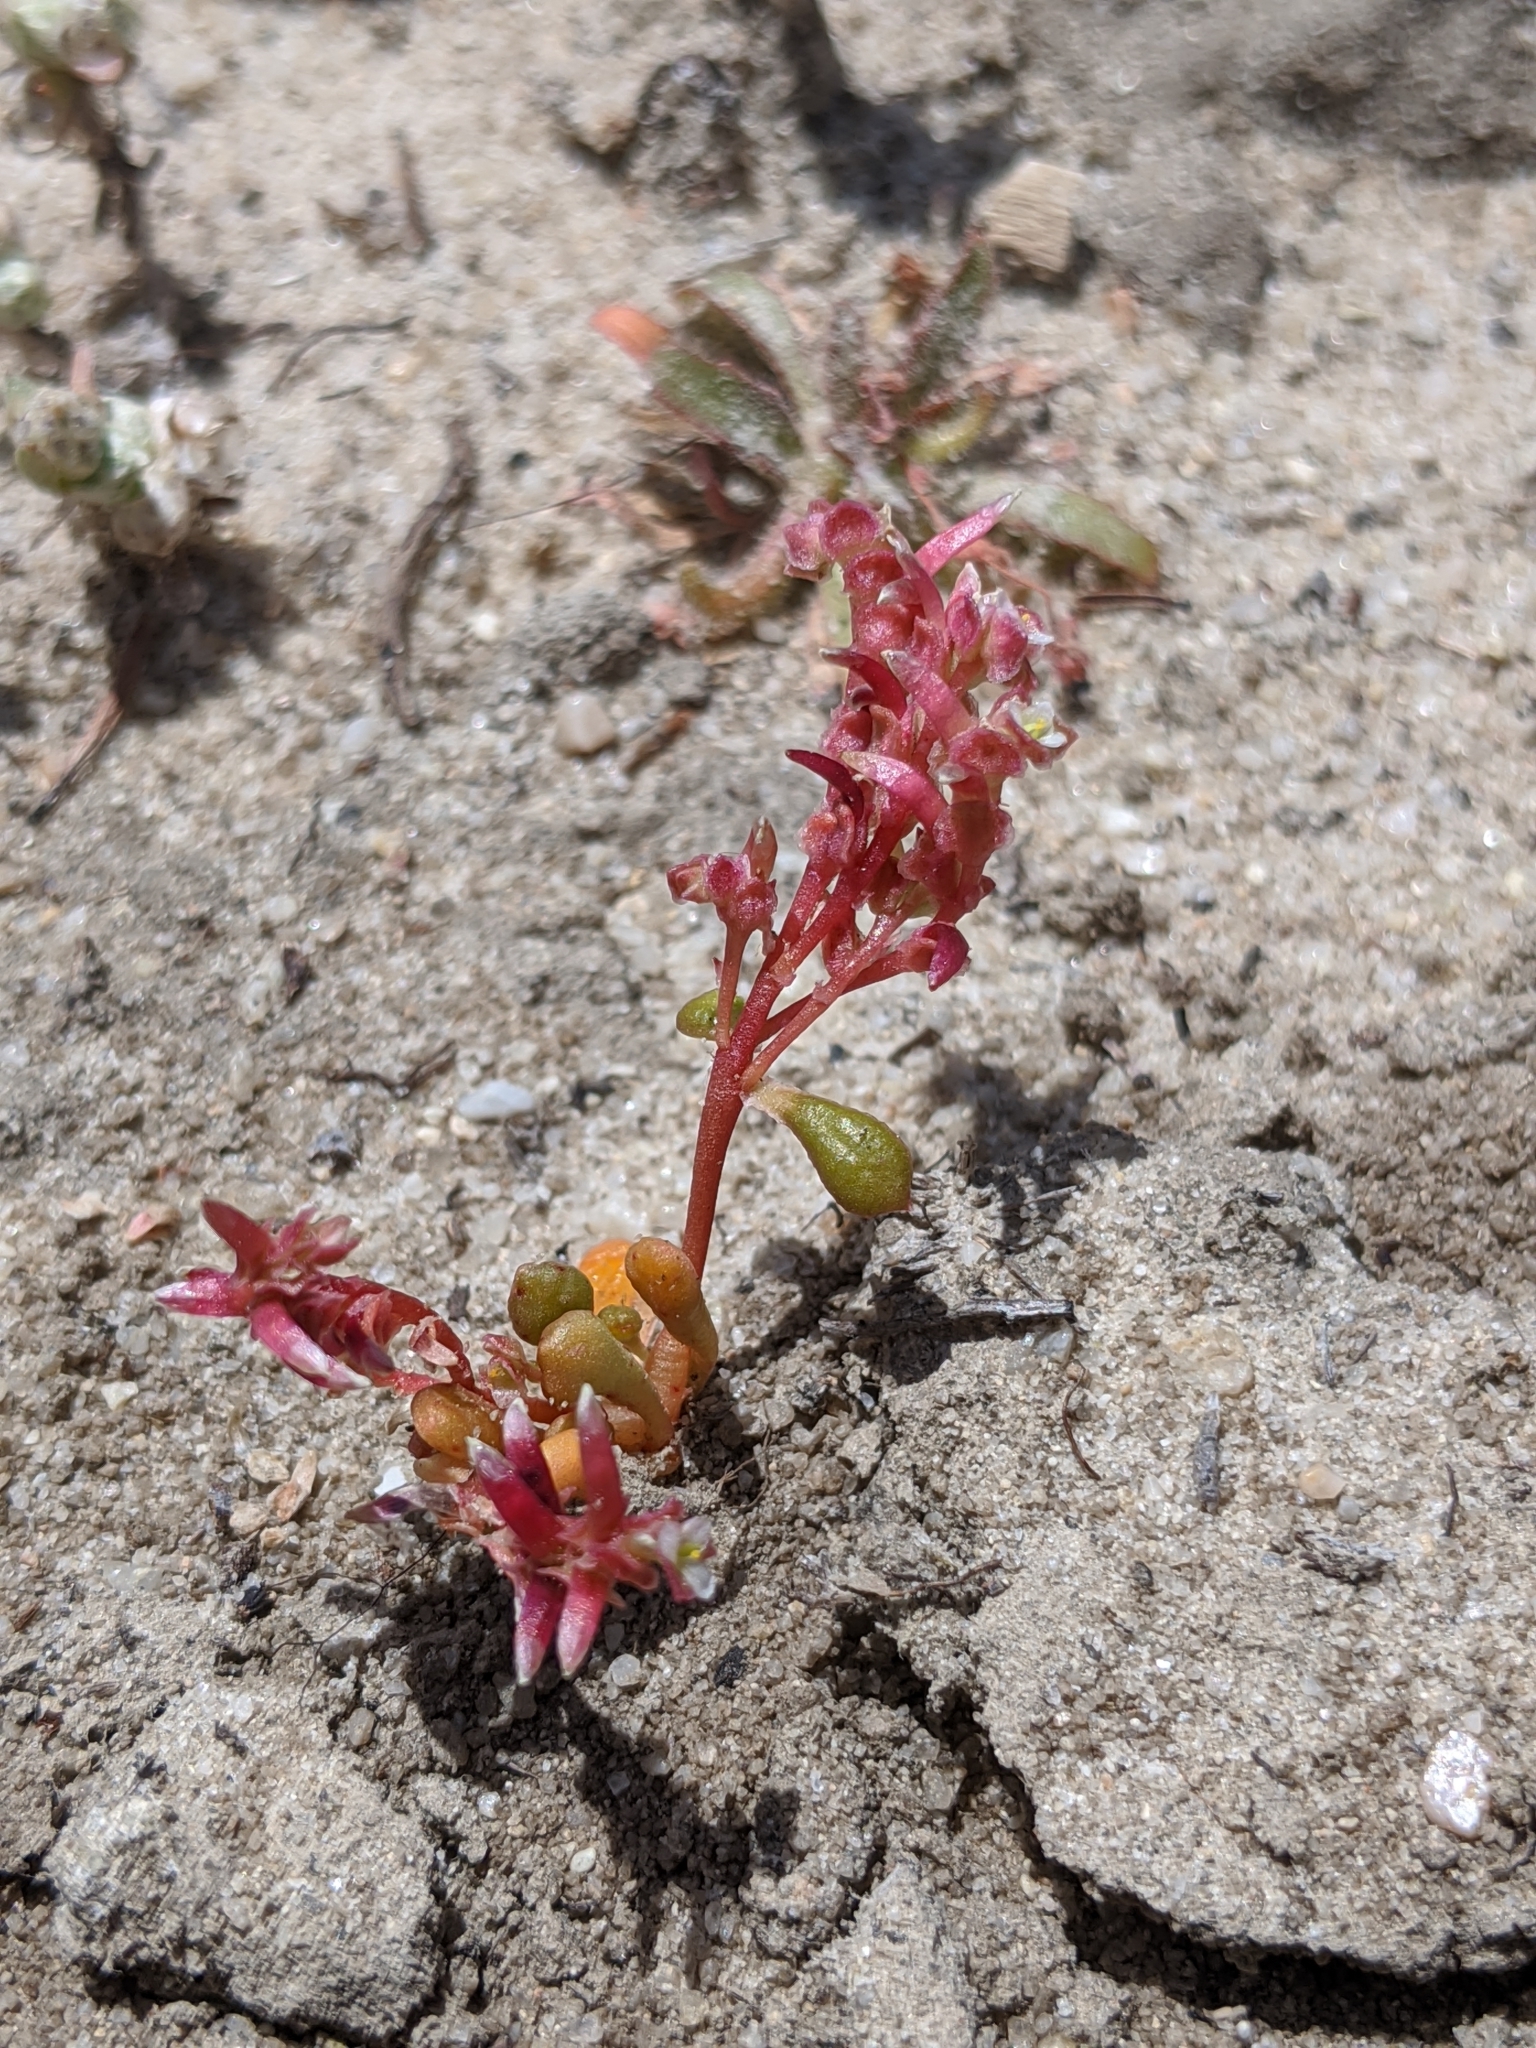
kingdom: Plantae
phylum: Tracheophyta
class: Magnoliopsida
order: Caryophyllales
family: Montiaceae
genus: Calyptridium
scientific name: Calyptridium monandrum
